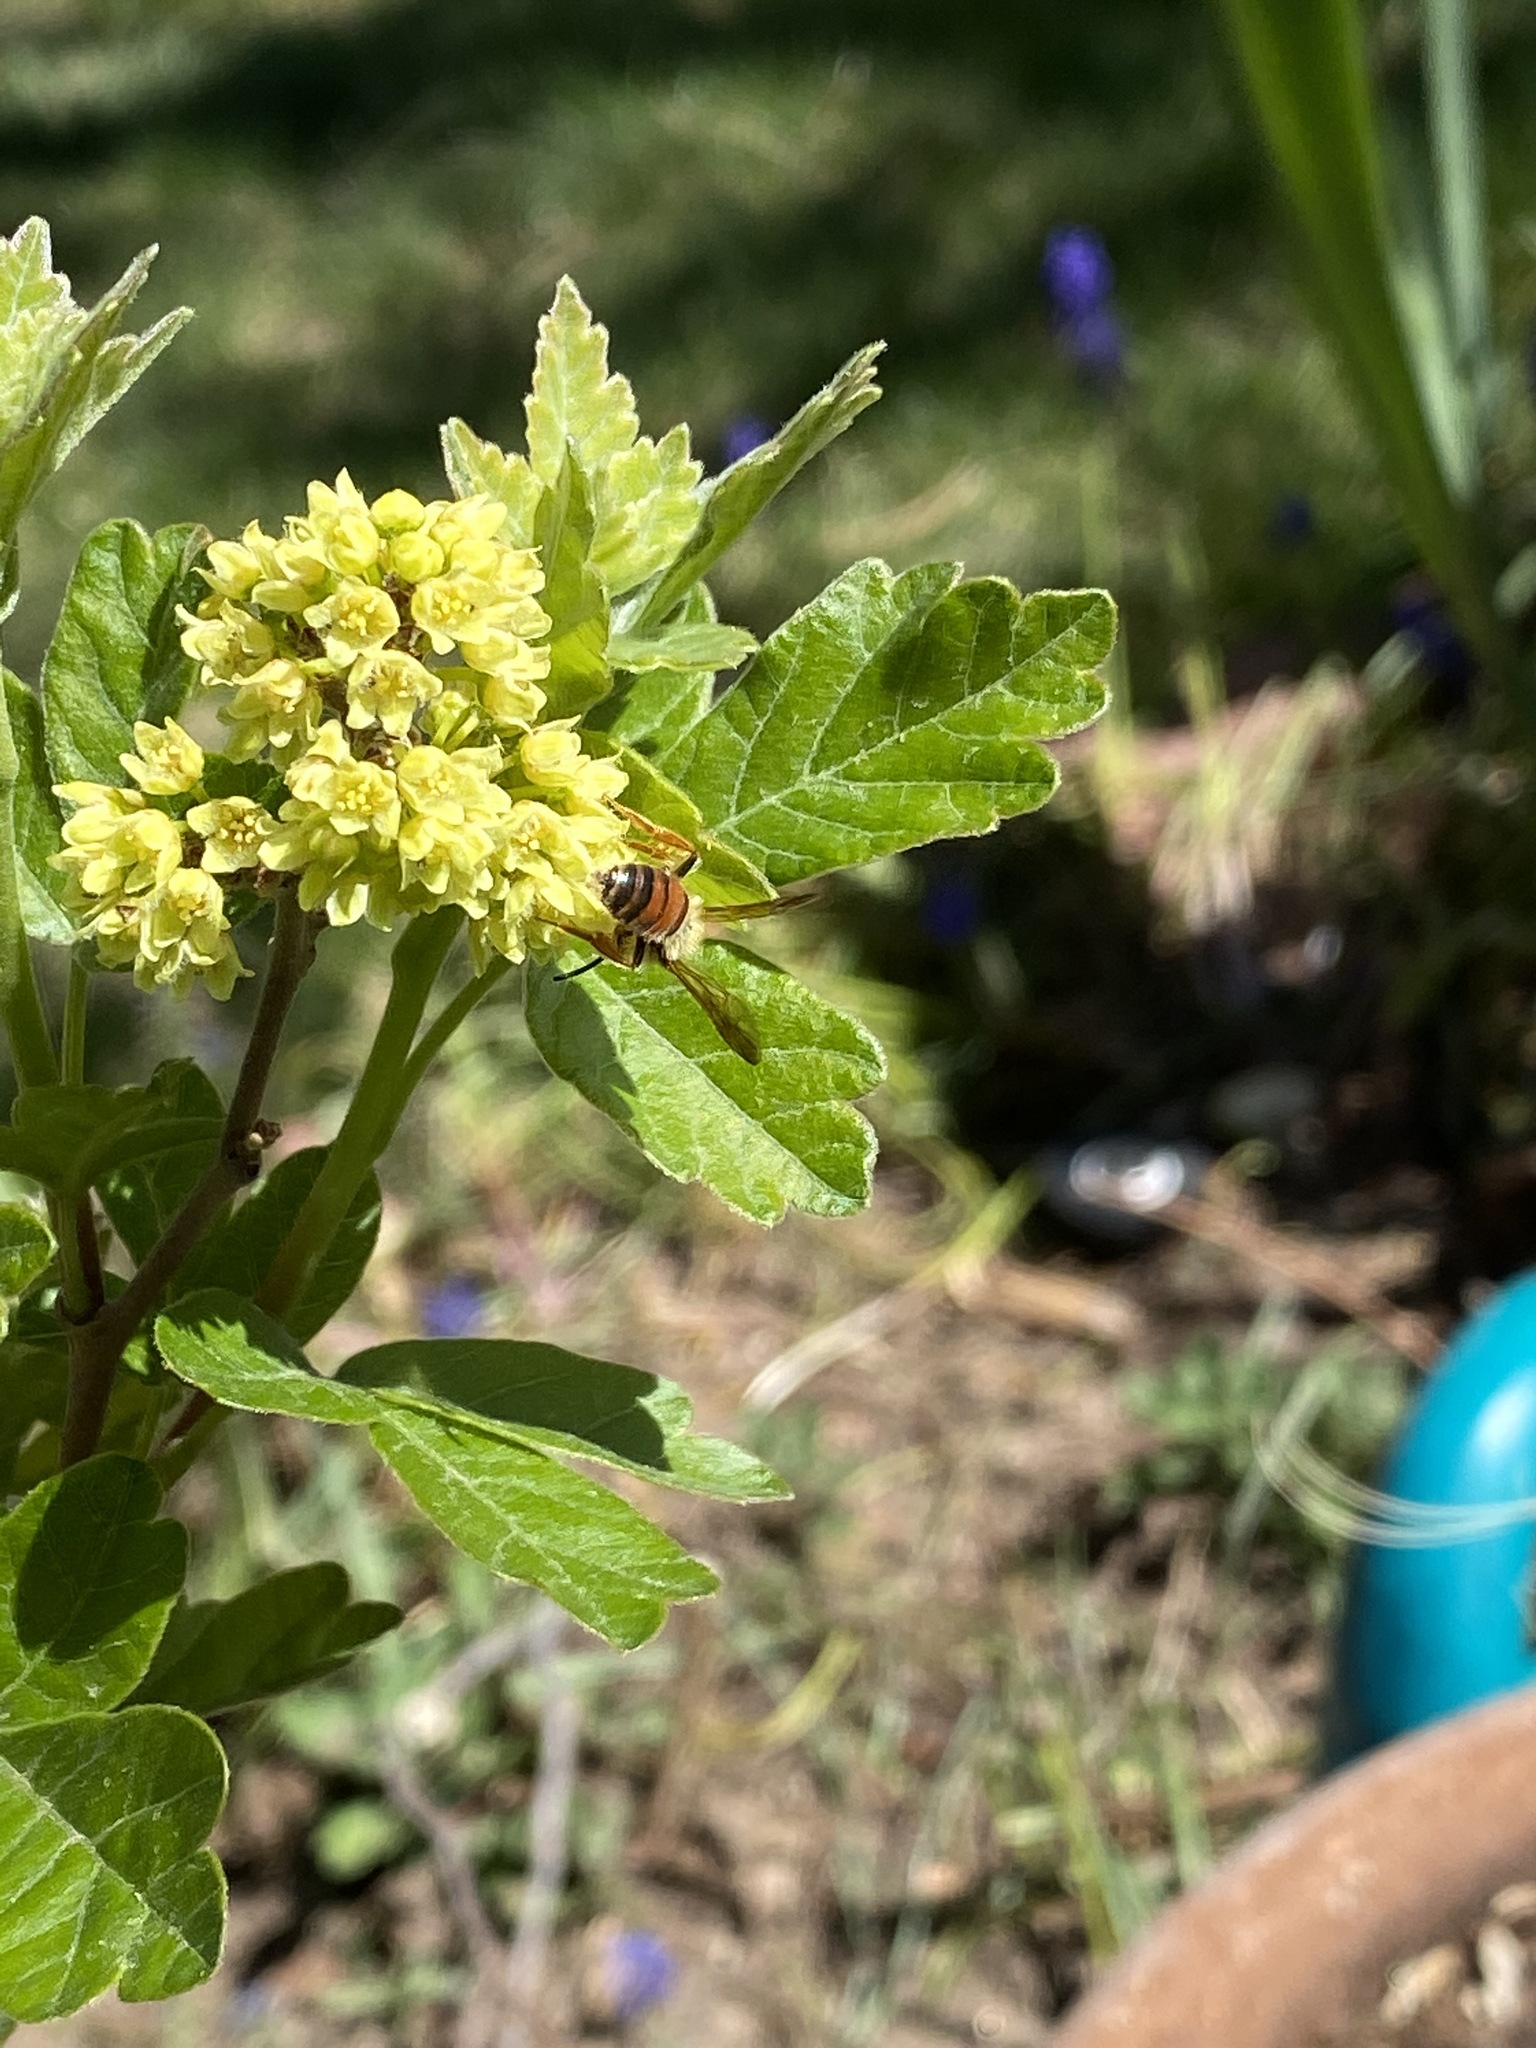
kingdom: Animalia
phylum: Arthropoda
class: Insecta
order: Hymenoptera
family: Andrenidae
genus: Andrena
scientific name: Andrena prunorum
